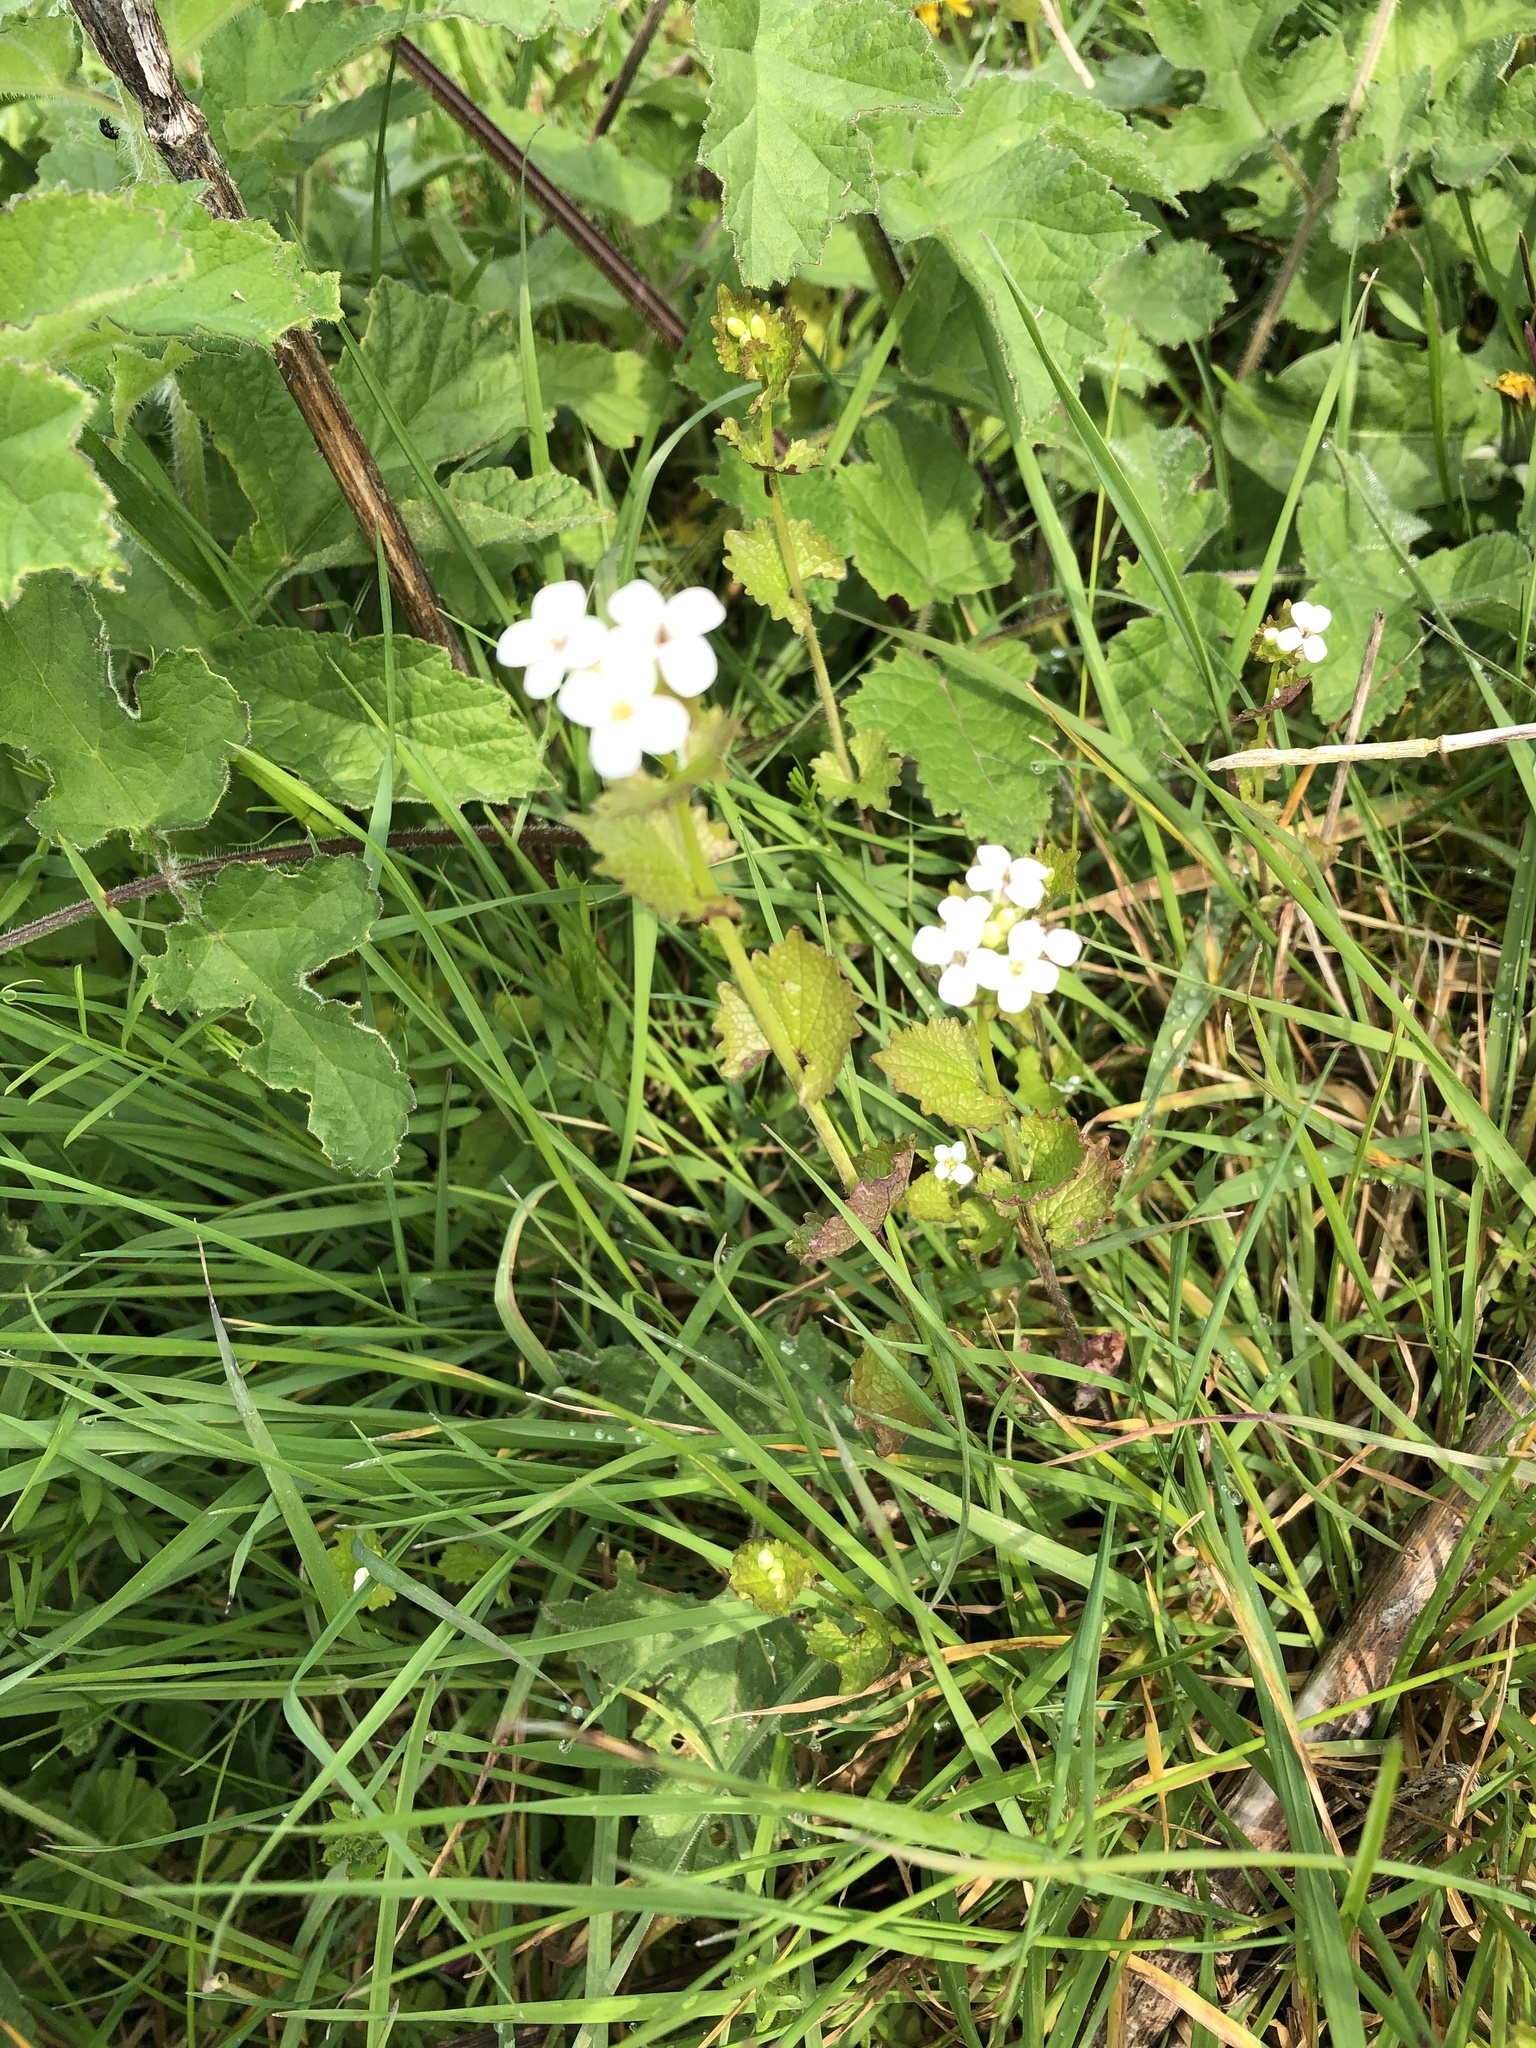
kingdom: Plantae
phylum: Tracheophyta
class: Magnoliopsida
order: Brassicales
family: Brassicaceae
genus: Alliaria
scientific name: Alliaria petiolata
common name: Garlic mustard
